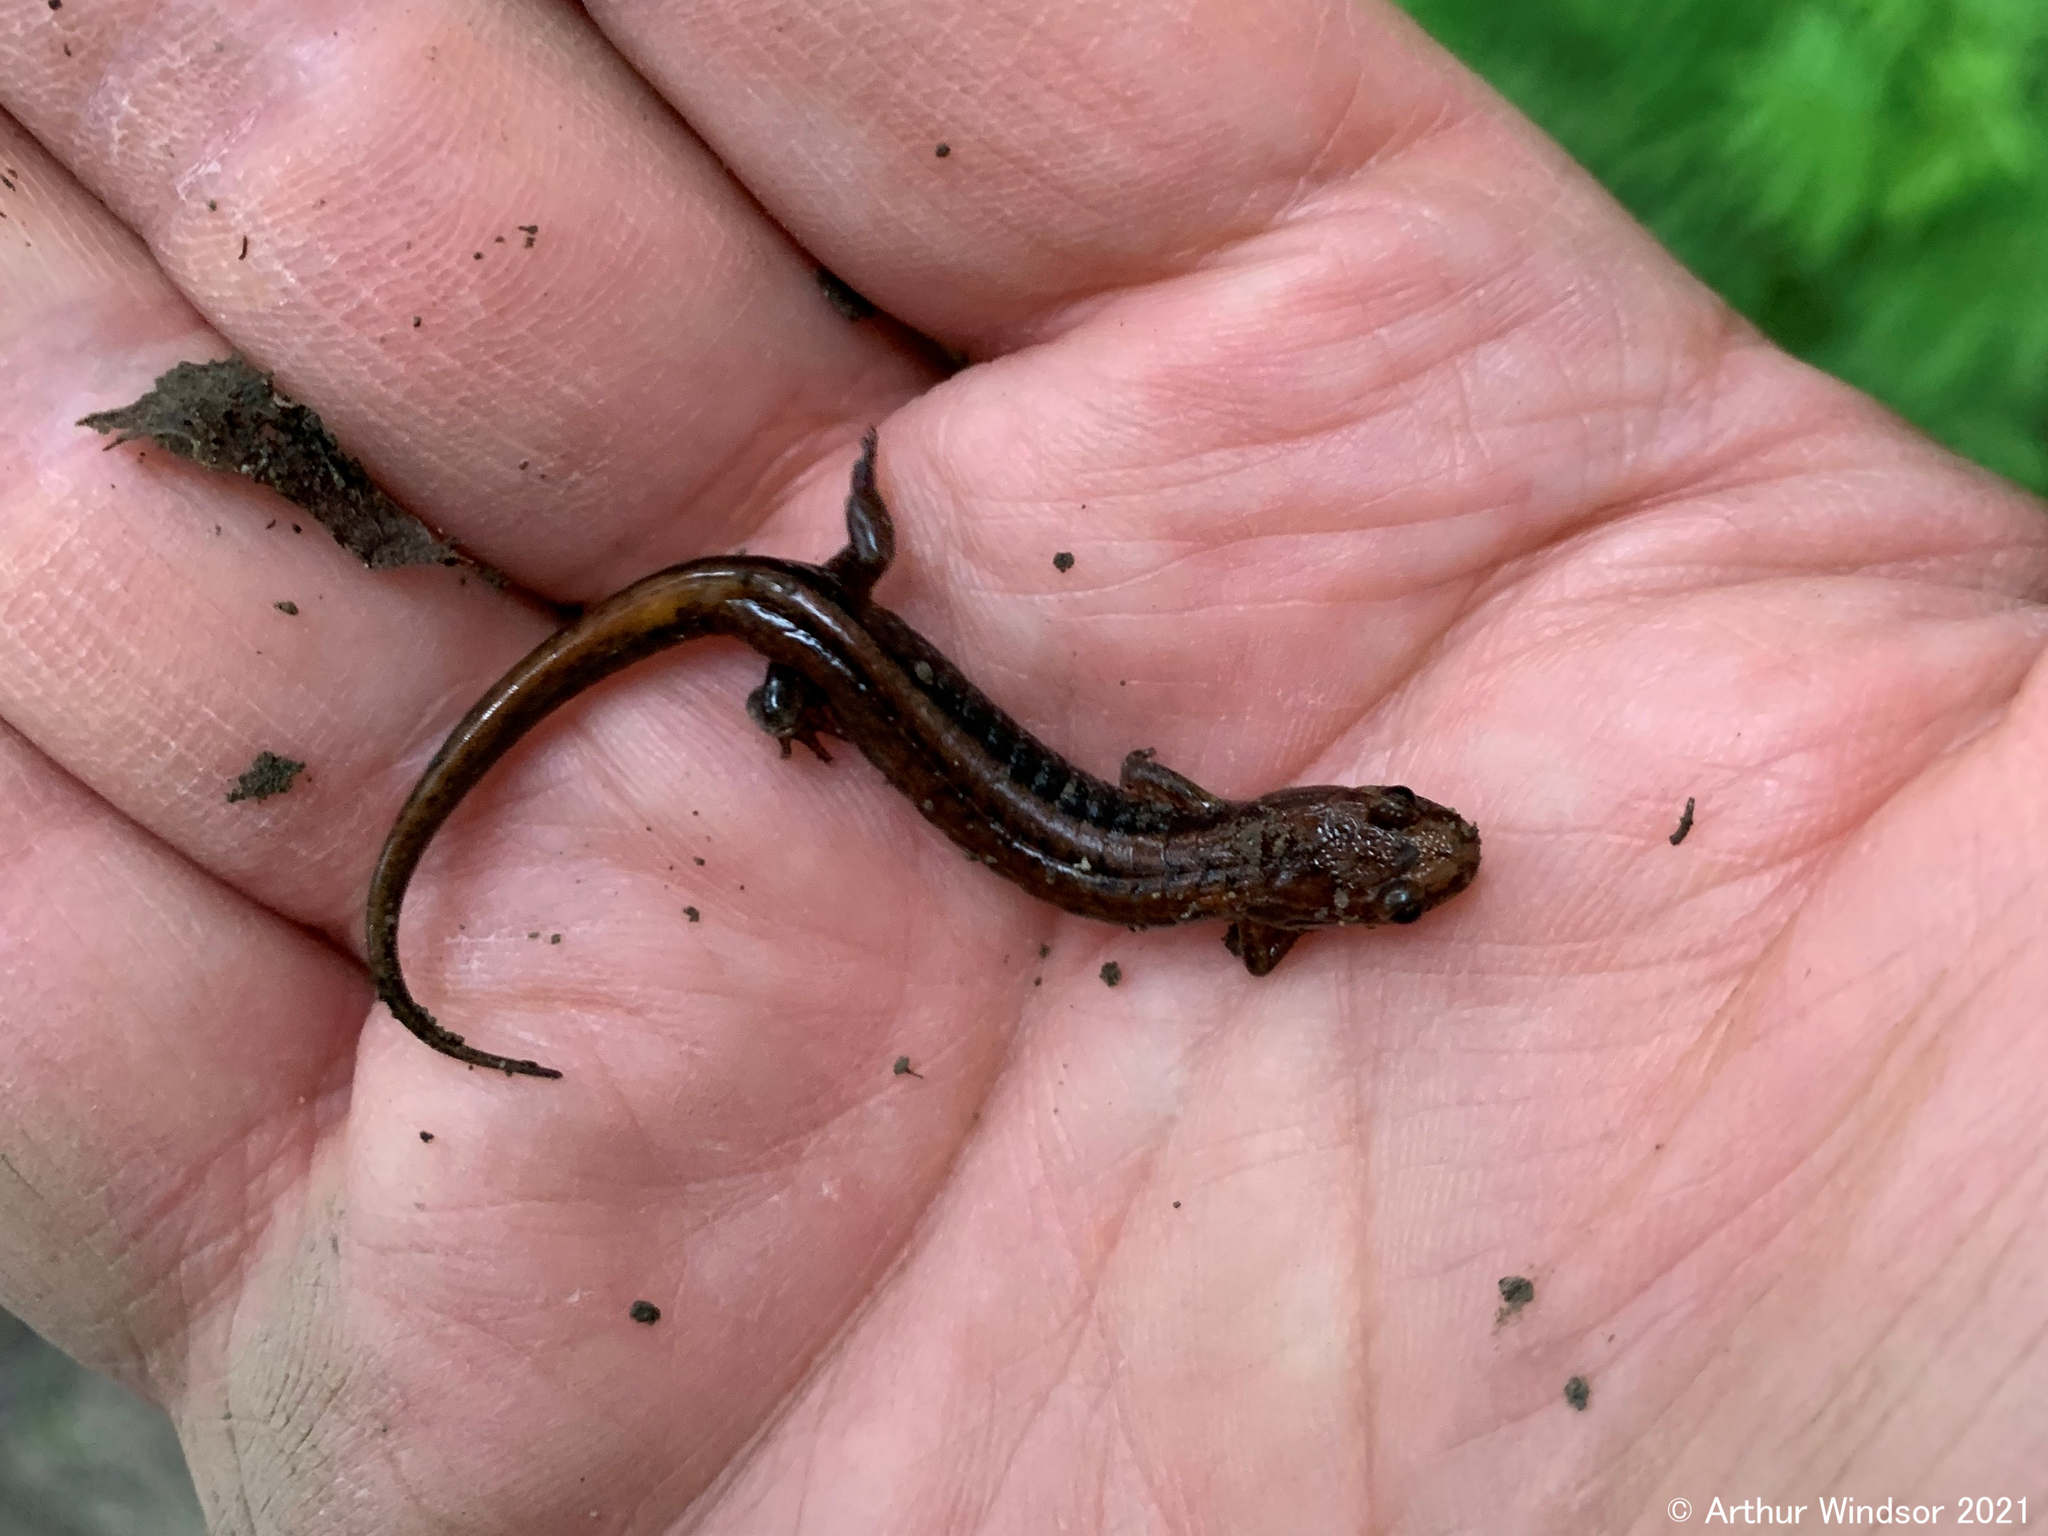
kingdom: Animalia
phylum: Chordata
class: Amphibia
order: Caudata
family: Plethodontidae
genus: Desmognathus
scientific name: Desmognathus ochrophaeus
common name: Allegheny mountain dusky salamander
